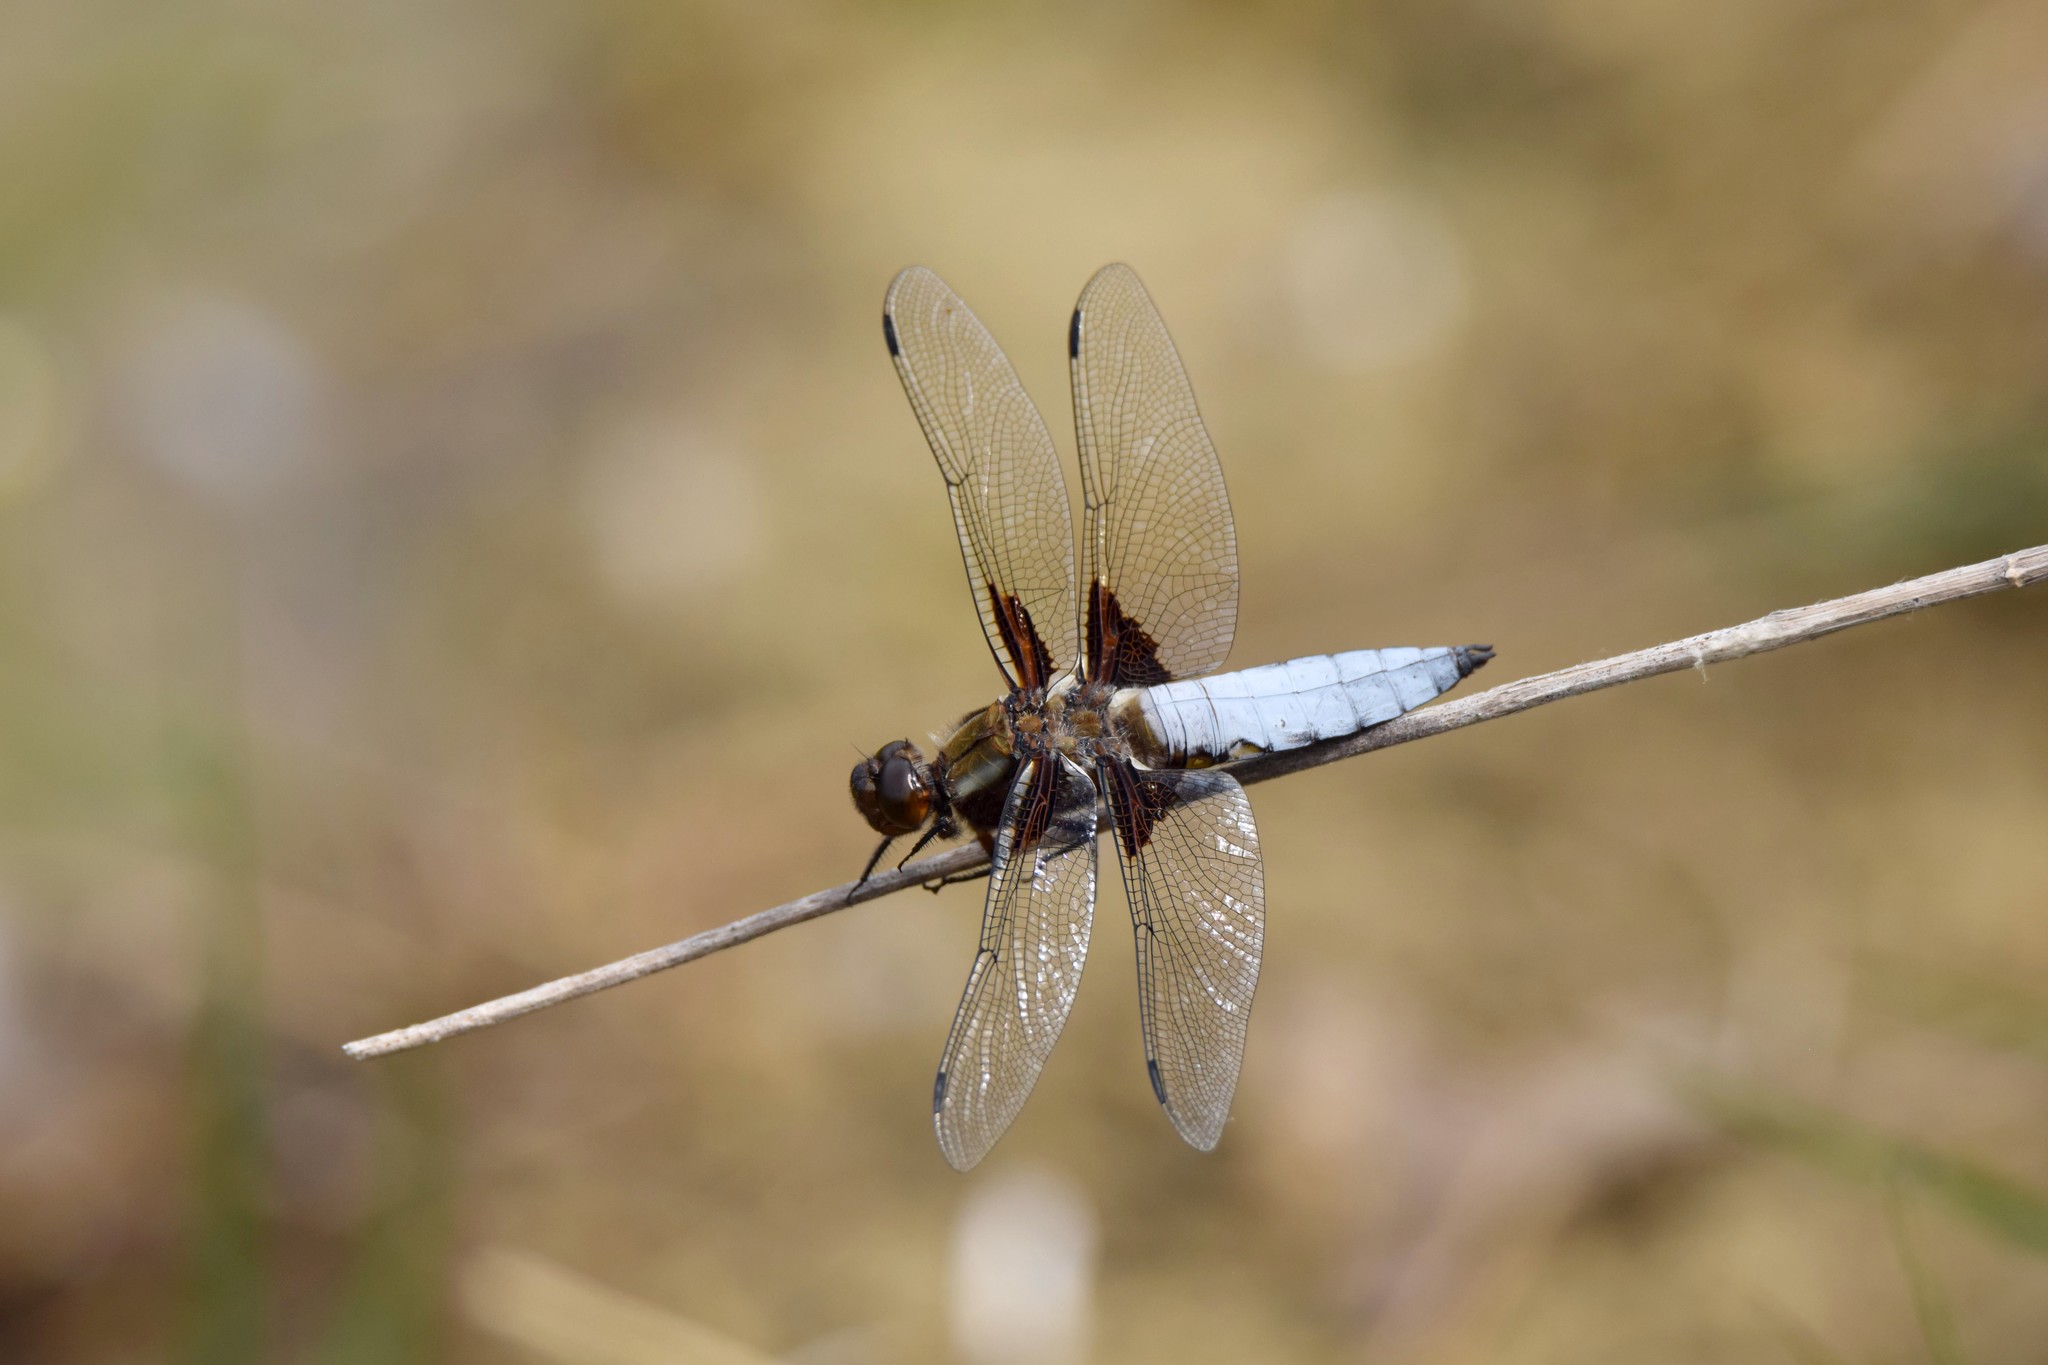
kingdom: Animalia
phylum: Arthropoda
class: Insecta
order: Odonata
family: Libellulidae
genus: Libellula
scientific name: Libellula depressa
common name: Broad-bodied chaser
